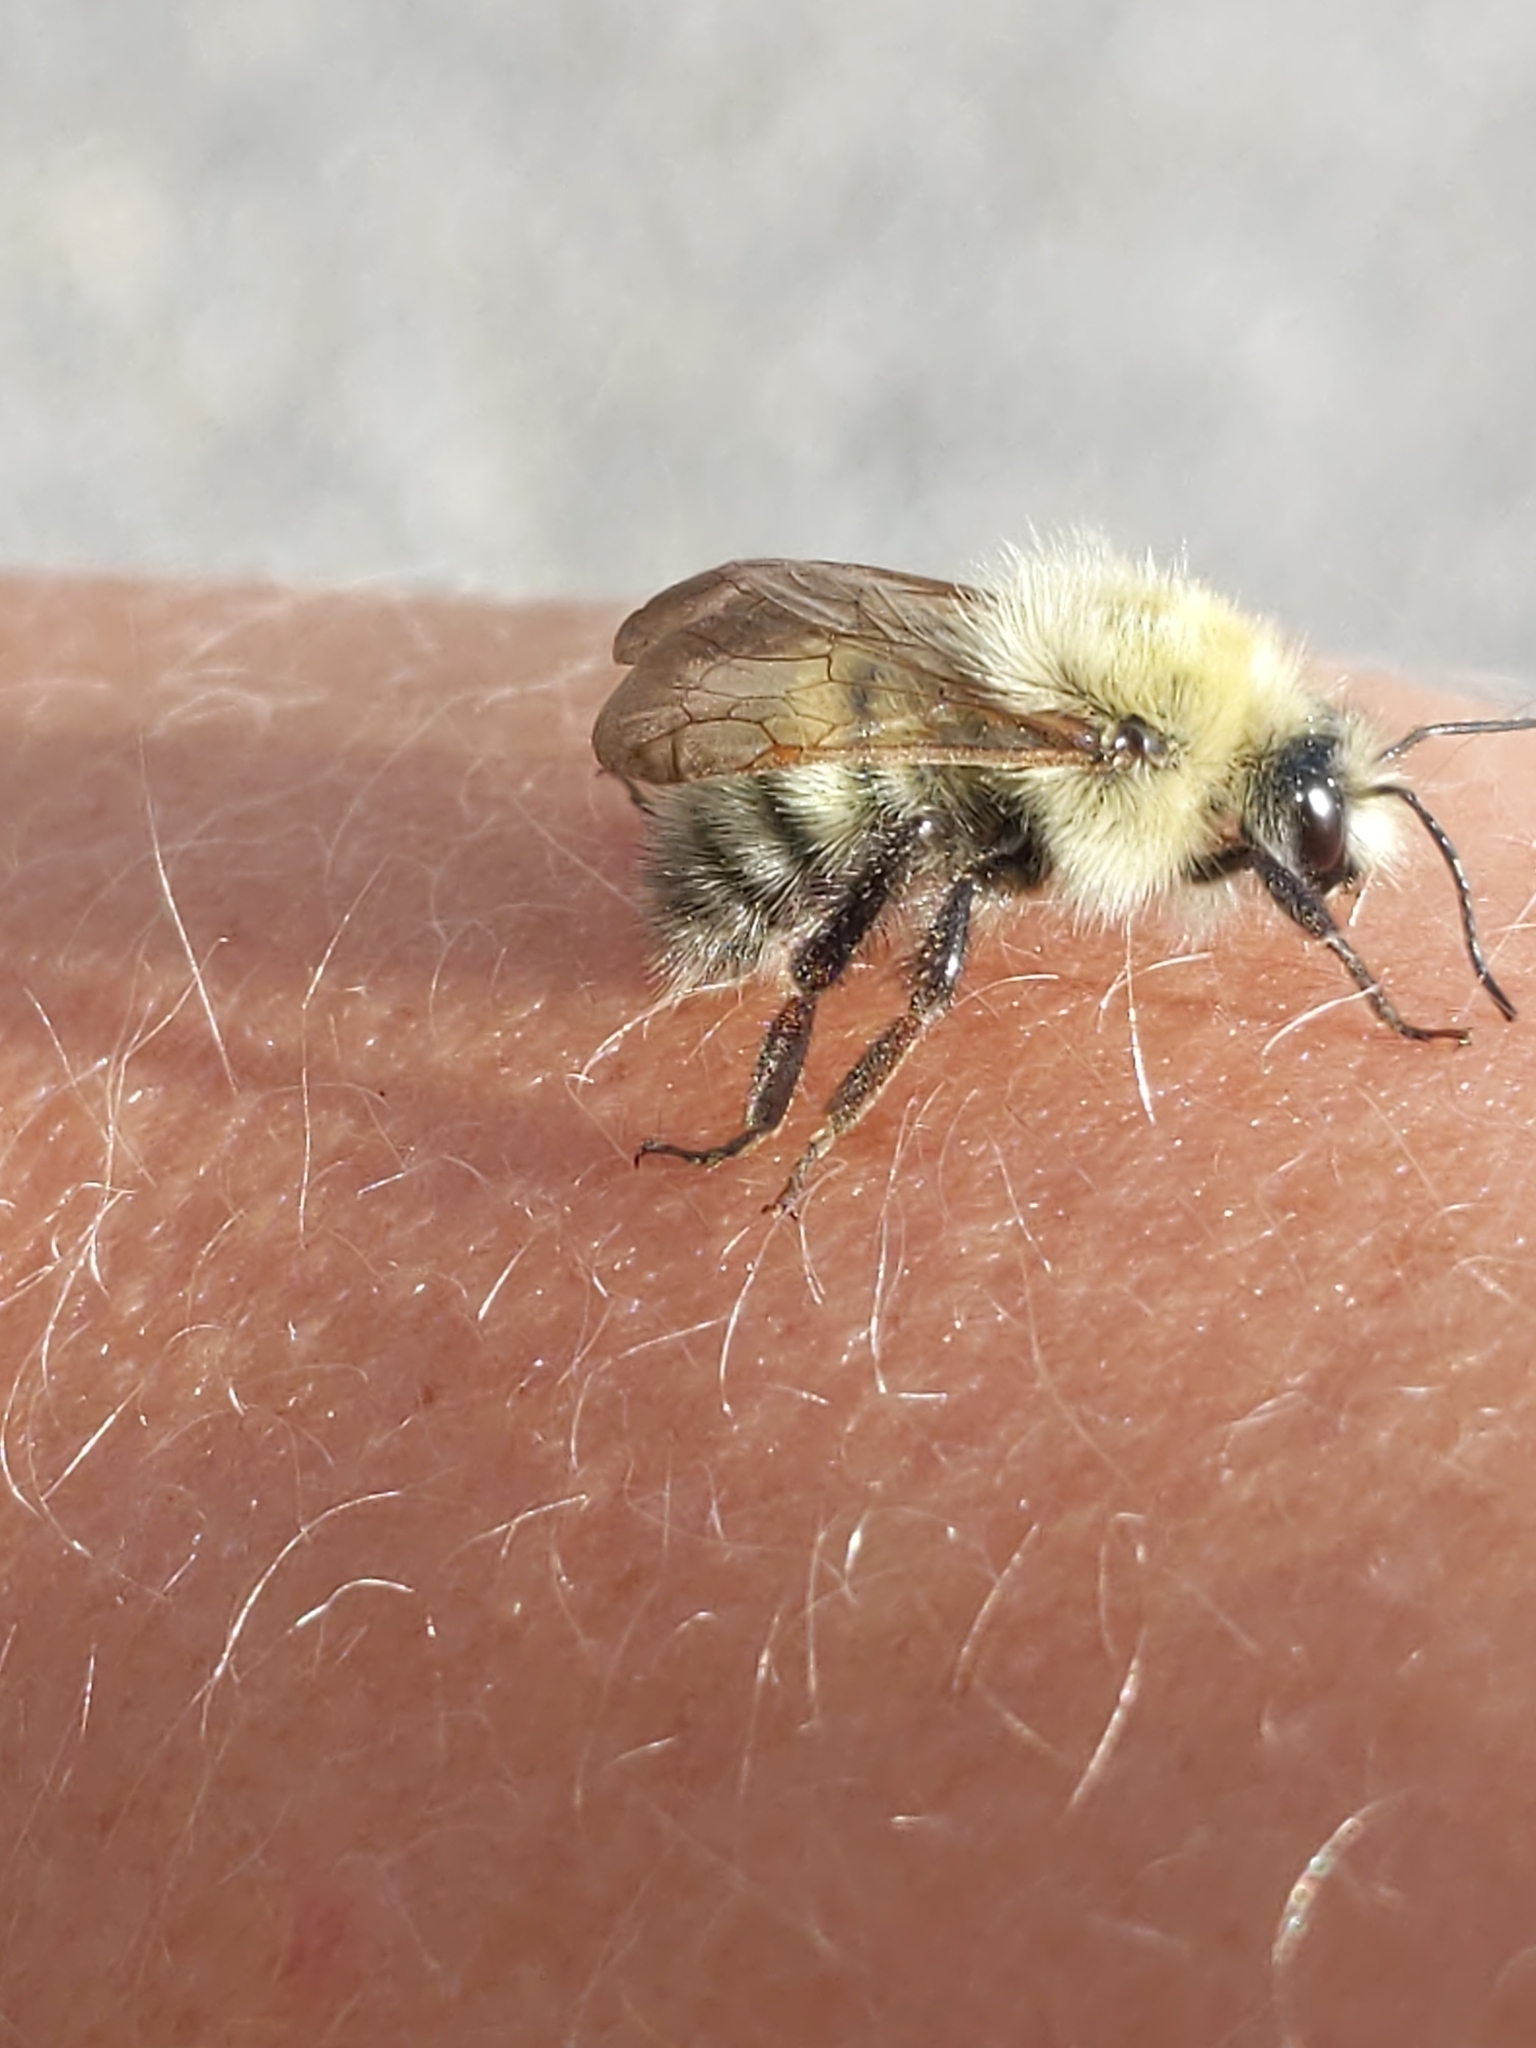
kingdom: Animalia
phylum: Arthropoda
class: Insecta
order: Hymenoptera
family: Apidae
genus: Bombus
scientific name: Bombus perplexus
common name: Confusing bumble bee
